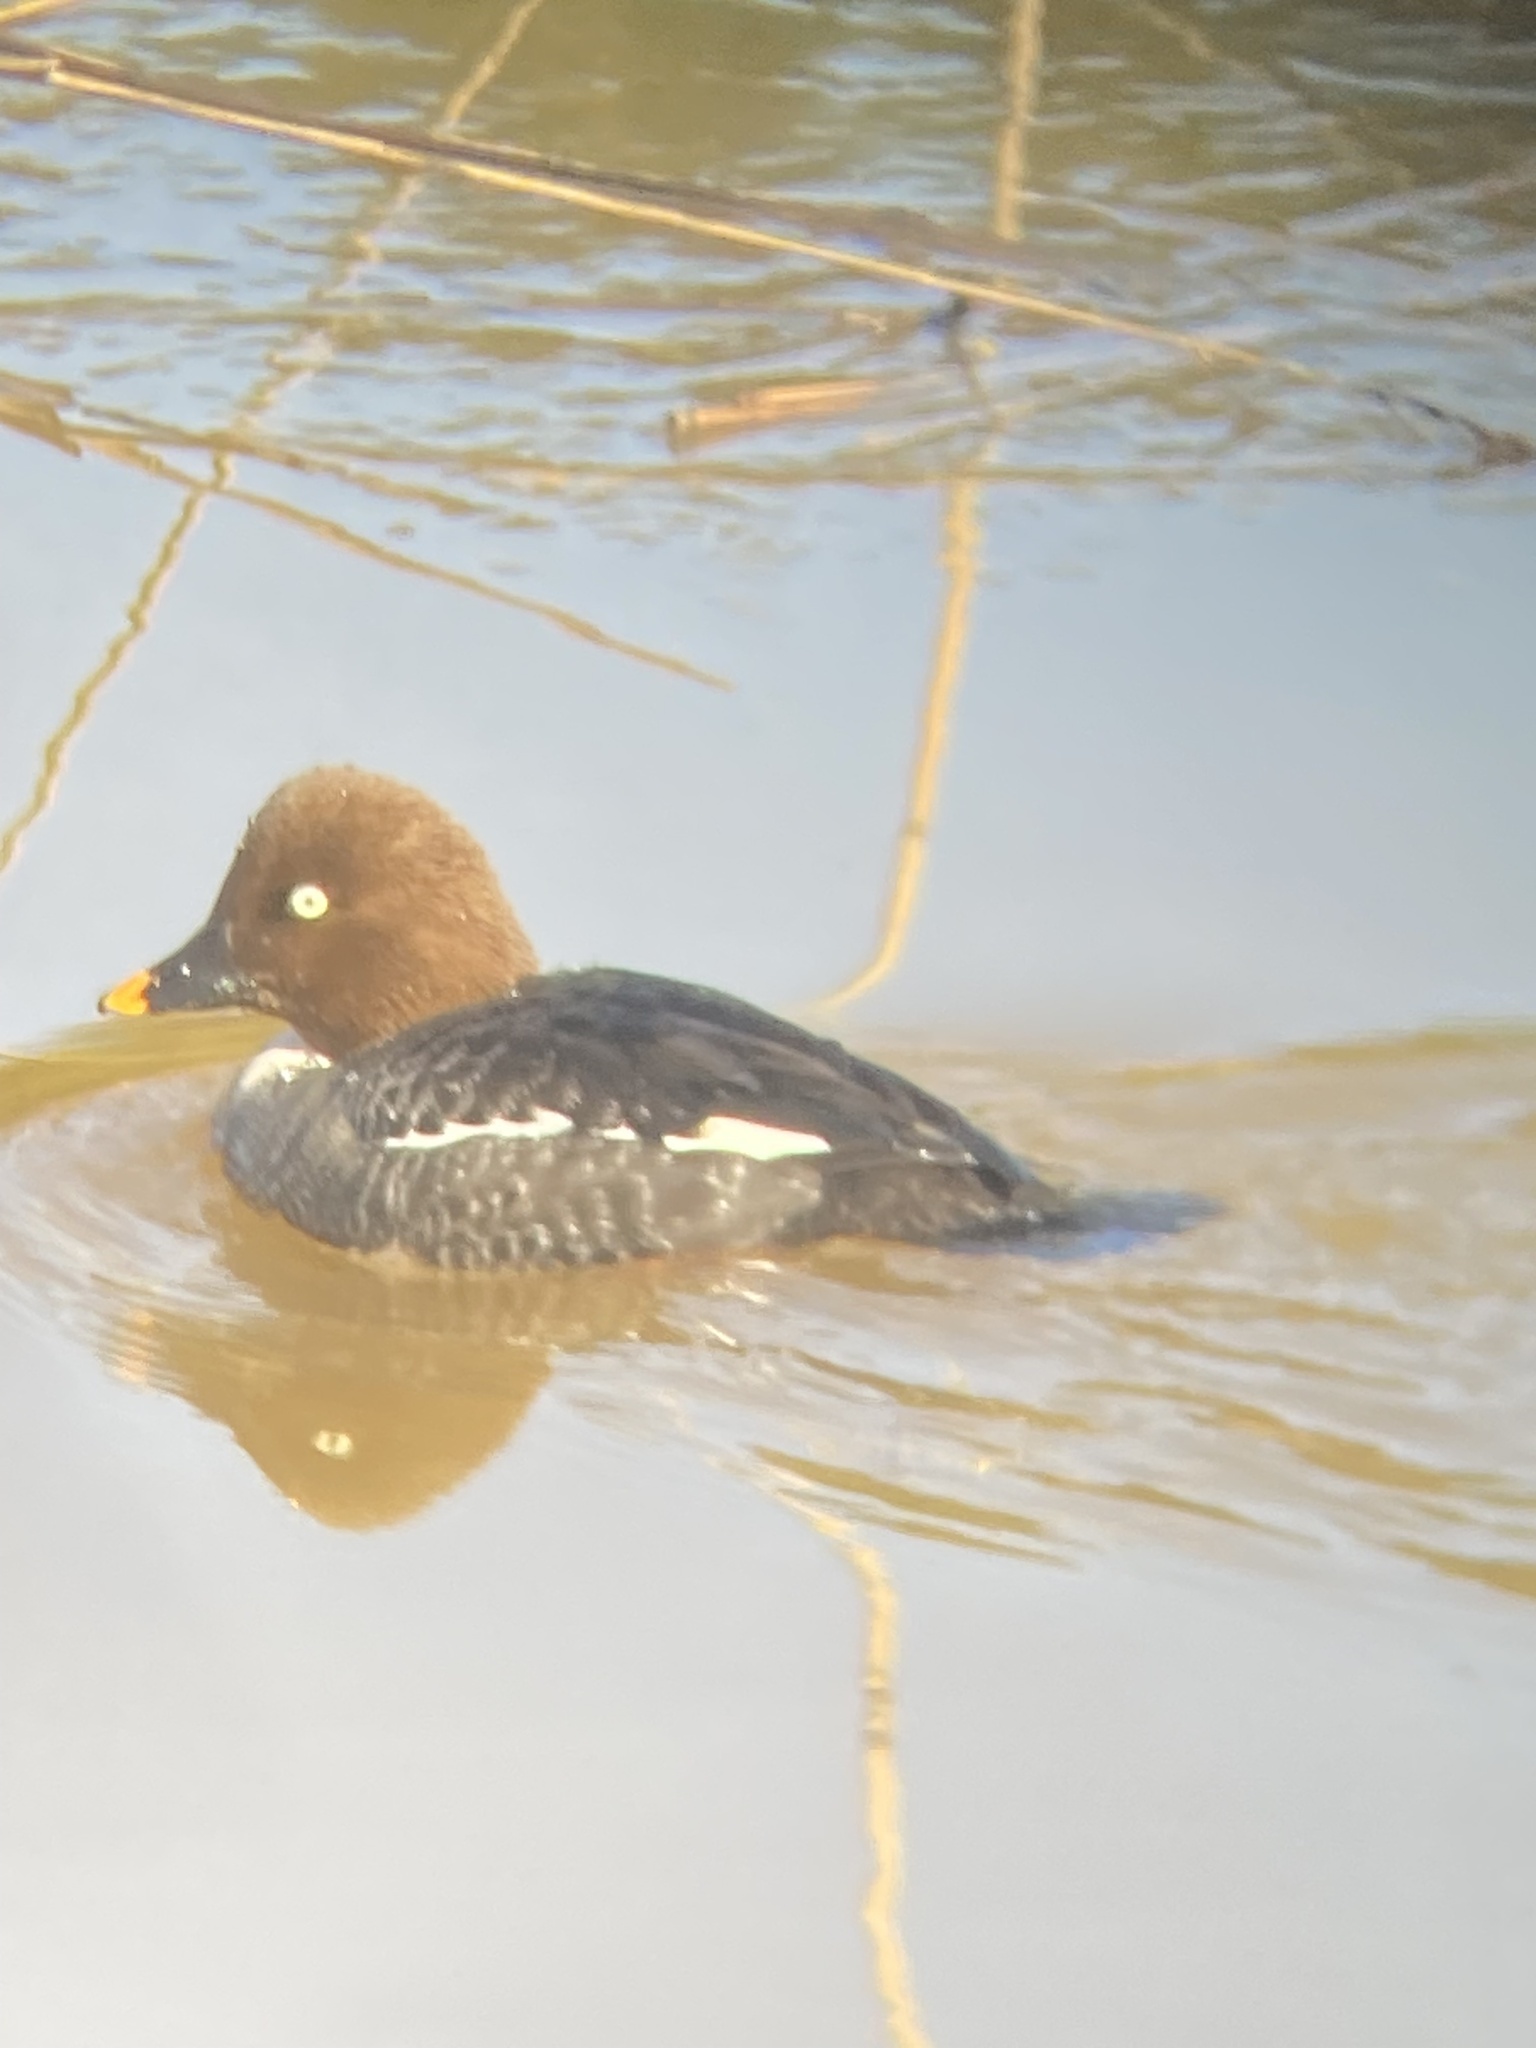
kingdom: Animalia
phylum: Chordata
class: Aves
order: Anseriformes
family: Anatidae
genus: Bucephala
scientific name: Bucephala clangula
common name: Common goldeneye
